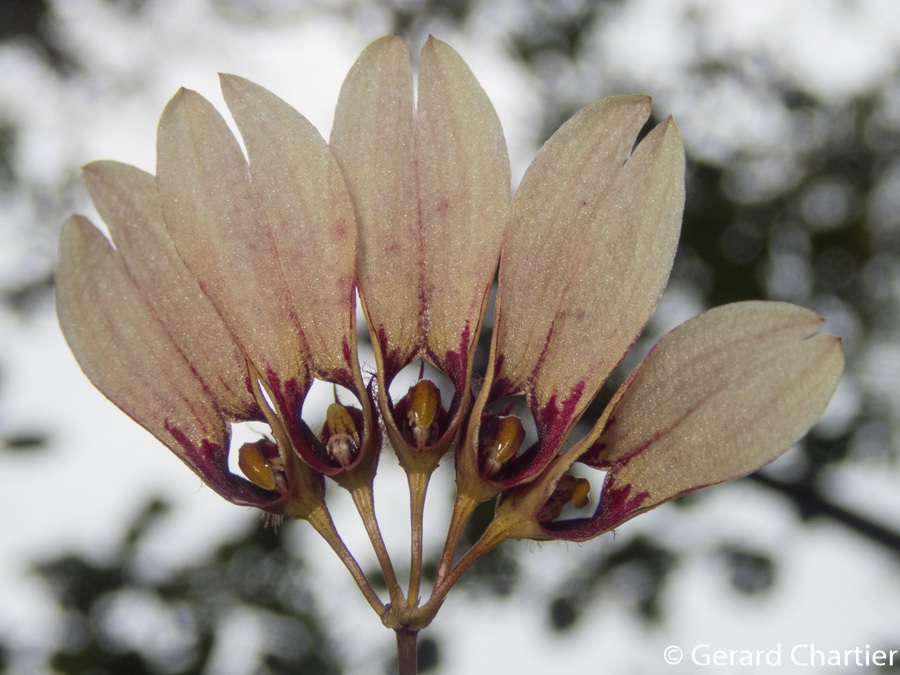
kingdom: Plantae
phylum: Tracheophyta
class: Liliopsida
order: Asparagales
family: Orchidaceae
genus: Bulbophyllum
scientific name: Bulbophyllum lepidum
